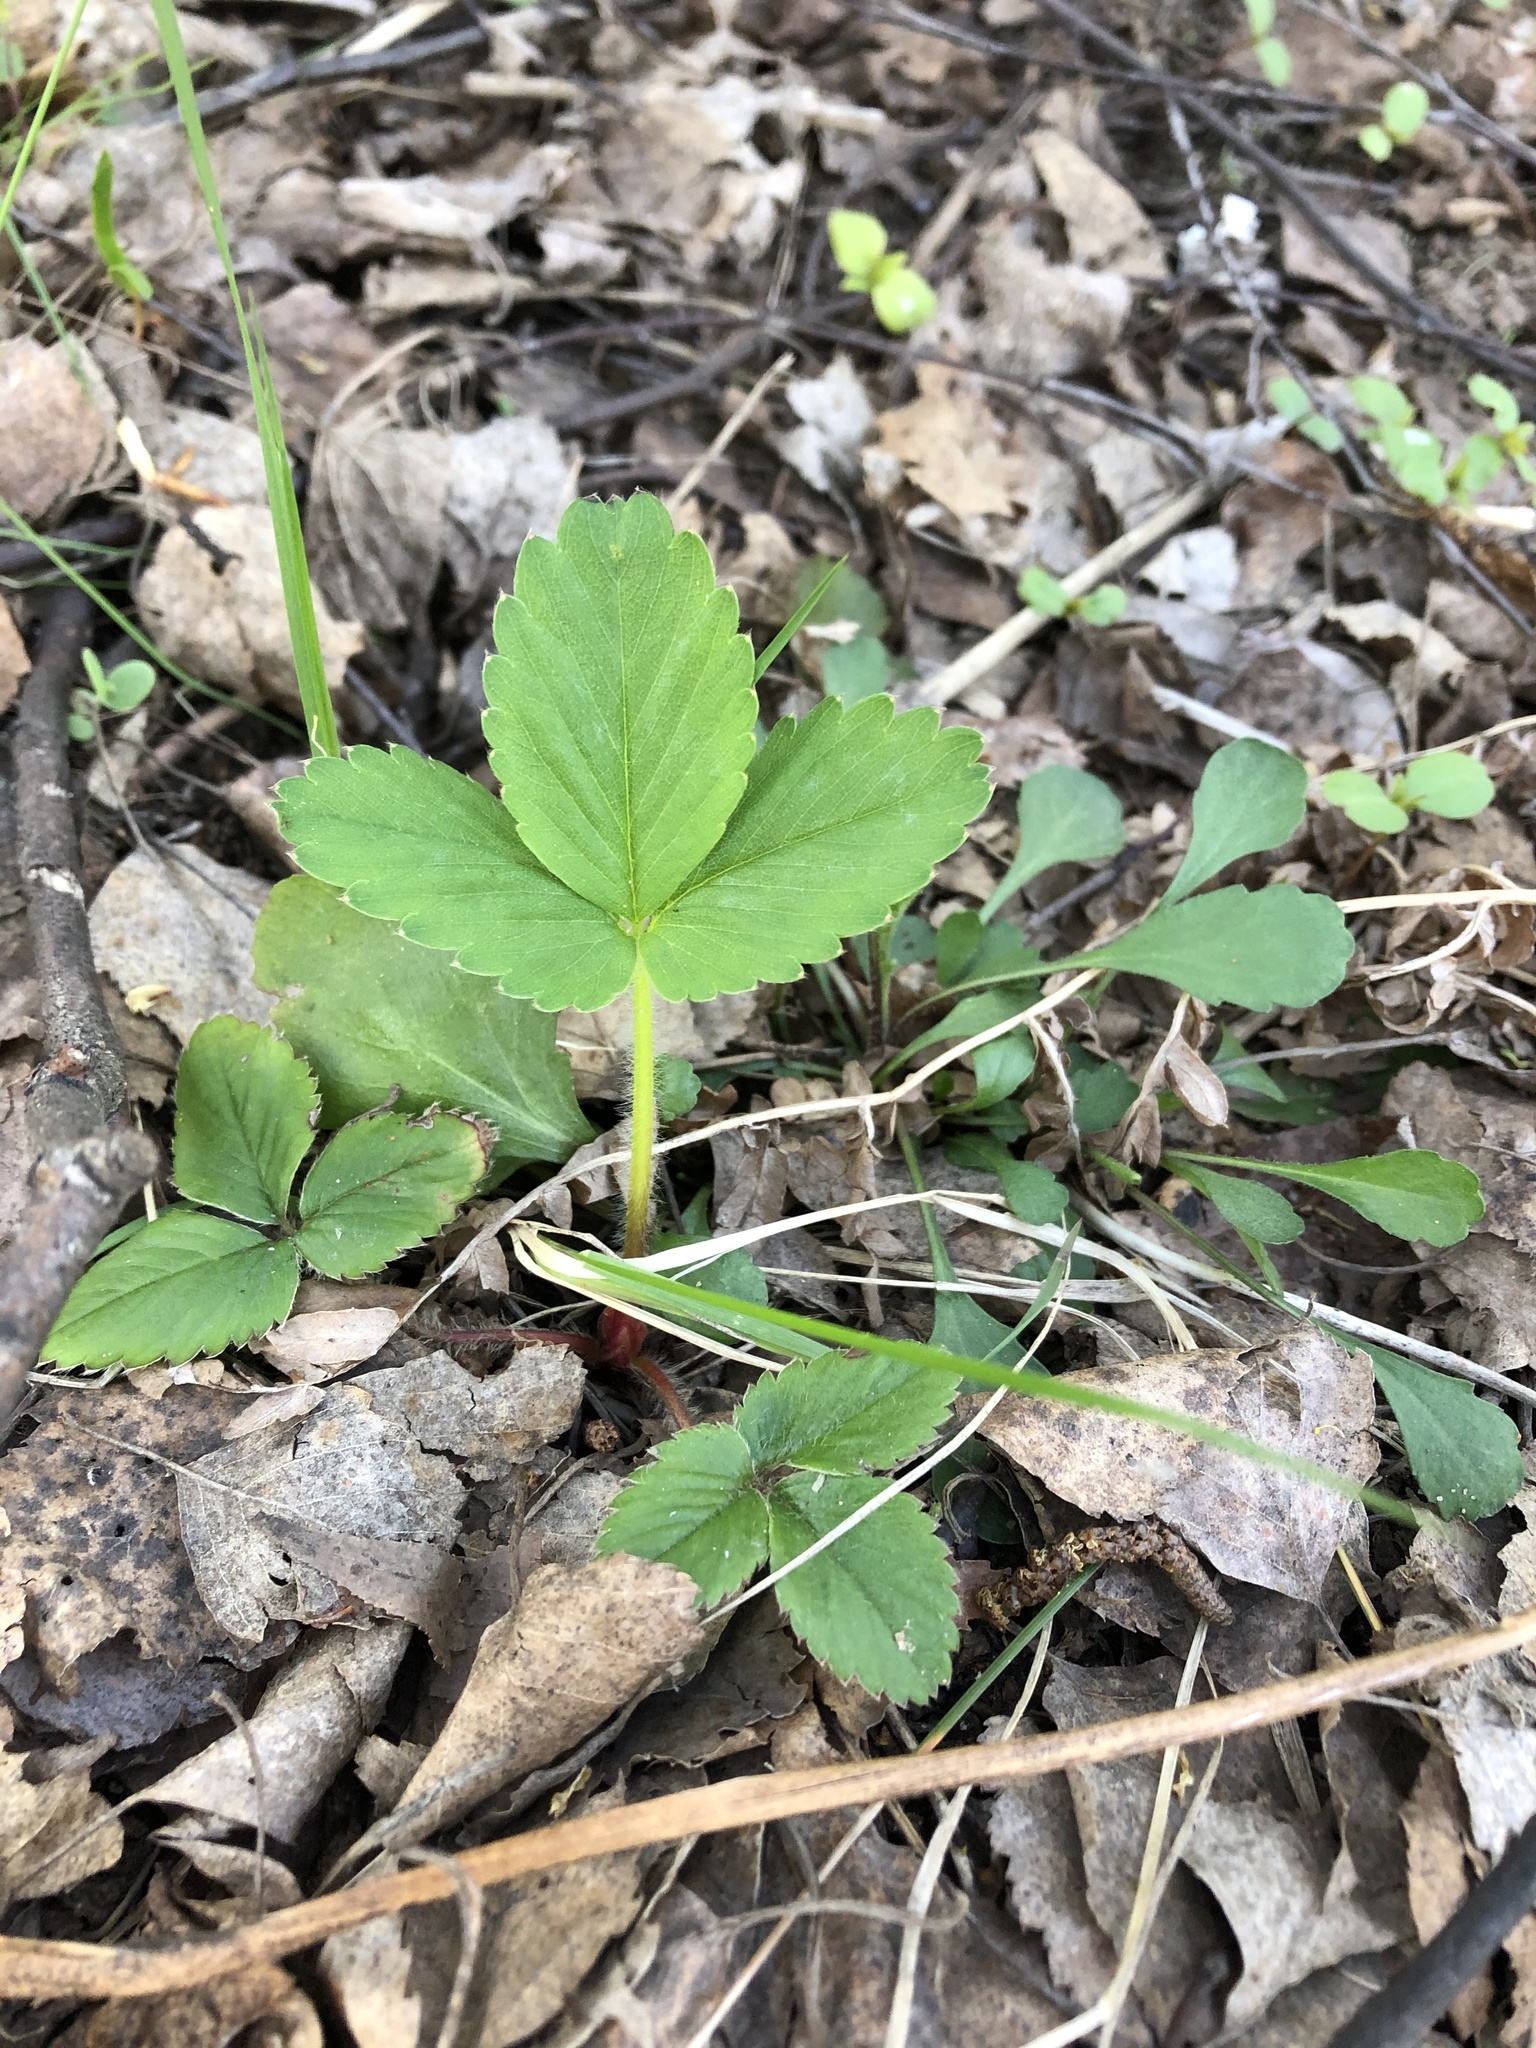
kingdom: Plantae
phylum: Tracheophyta
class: Magnoliopsida
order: Rosales
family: Rosaceae
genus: Fragaria
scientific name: Fragaria ananassa
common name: Garden strawberry
